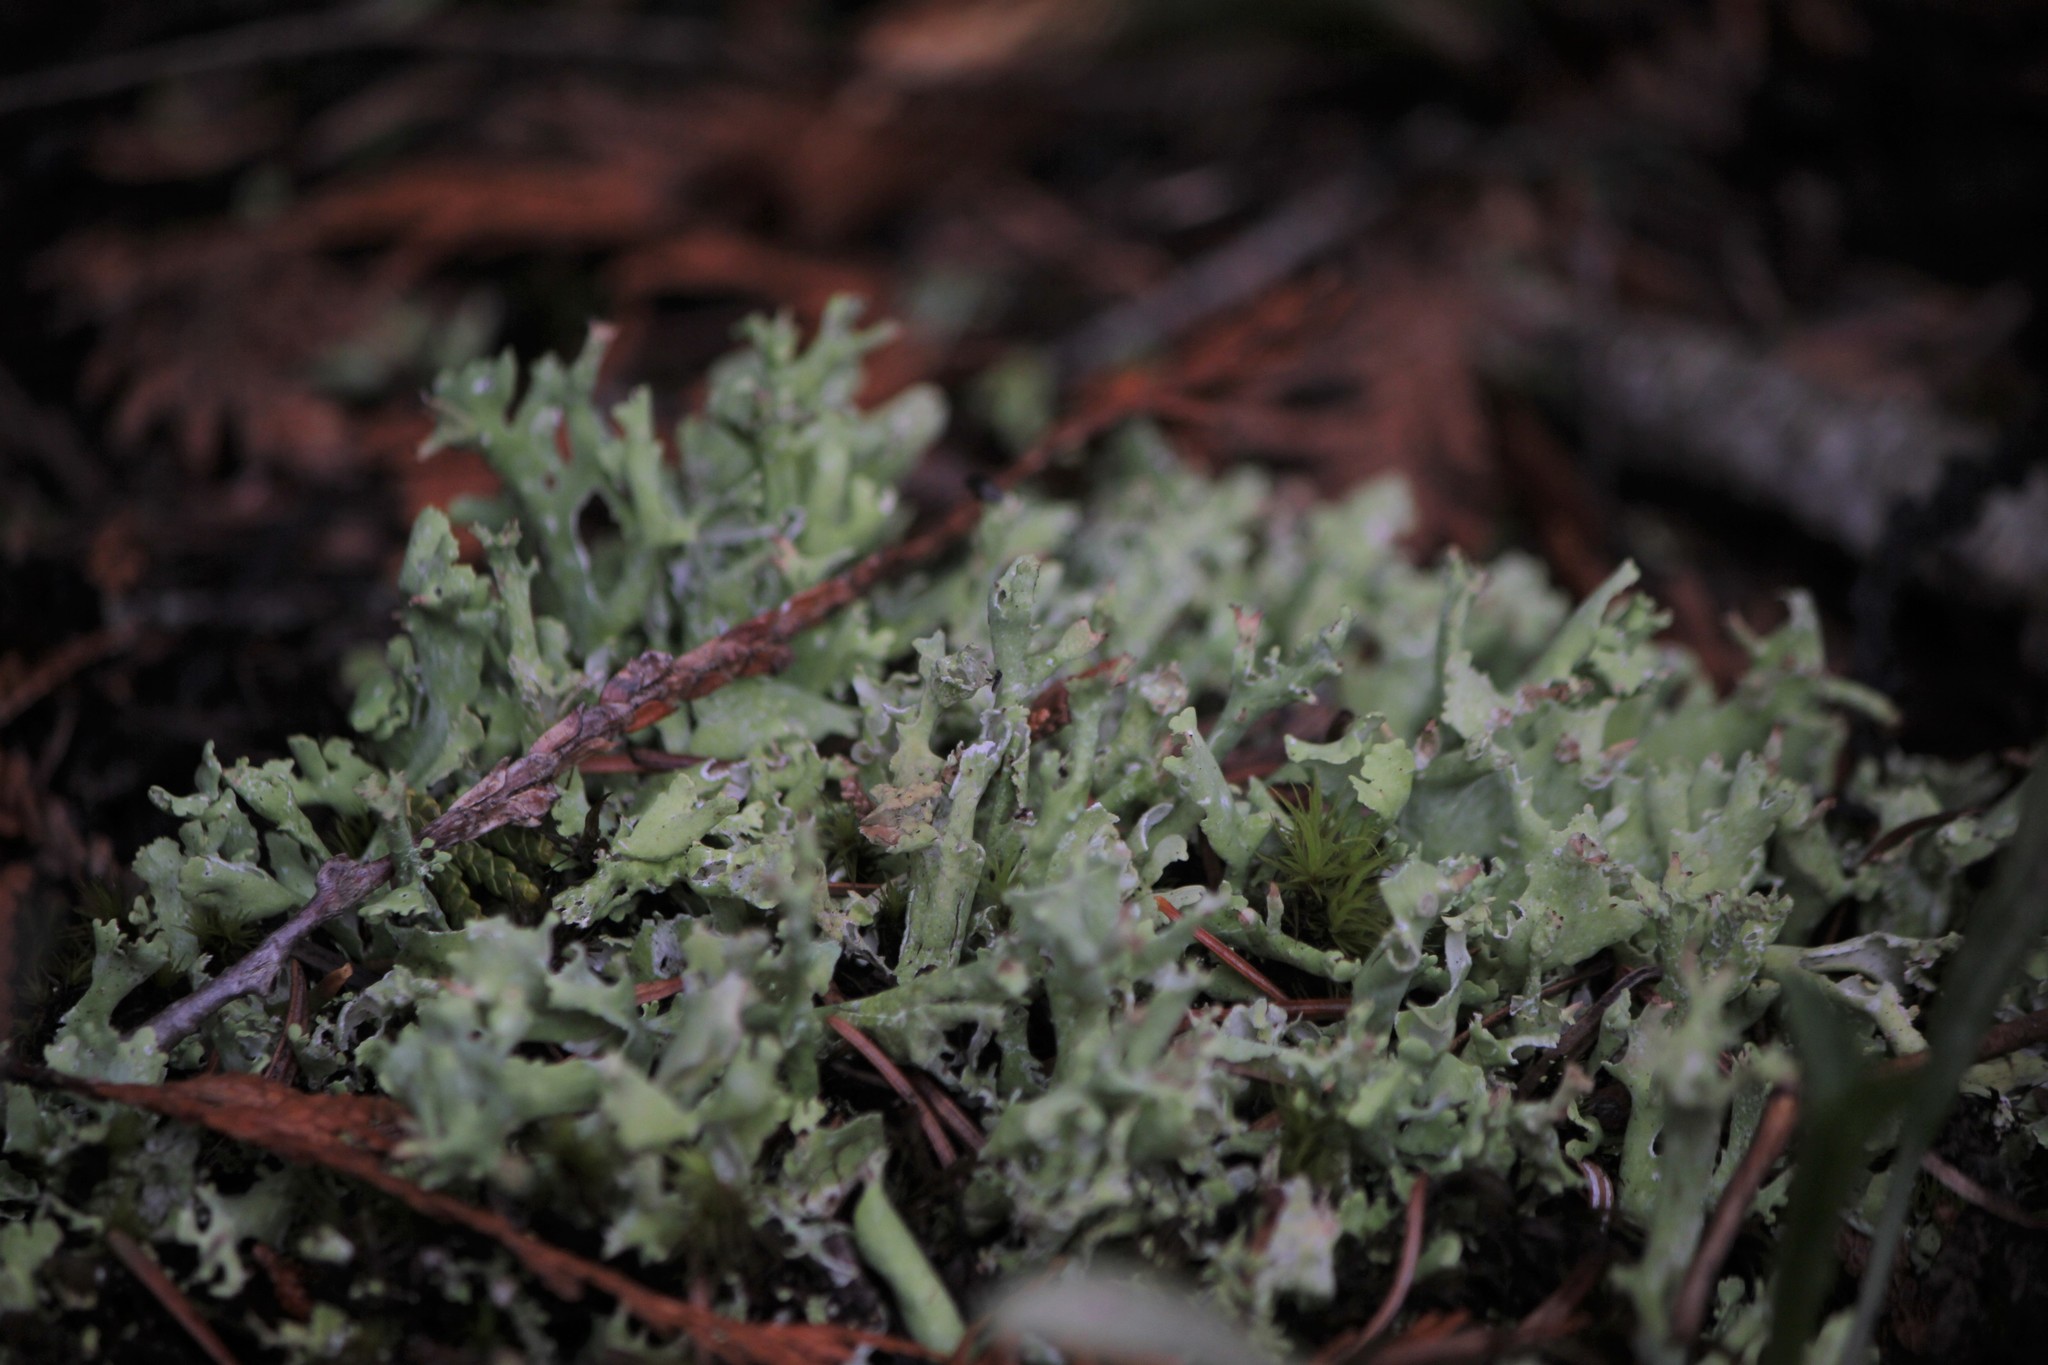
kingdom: Fungi
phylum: Ascomycota
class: Lecanoromycetes
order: Lecanorales
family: Cladoniaceae
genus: Cladonia
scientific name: Cladonia turgida
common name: Crazy scale lichen
